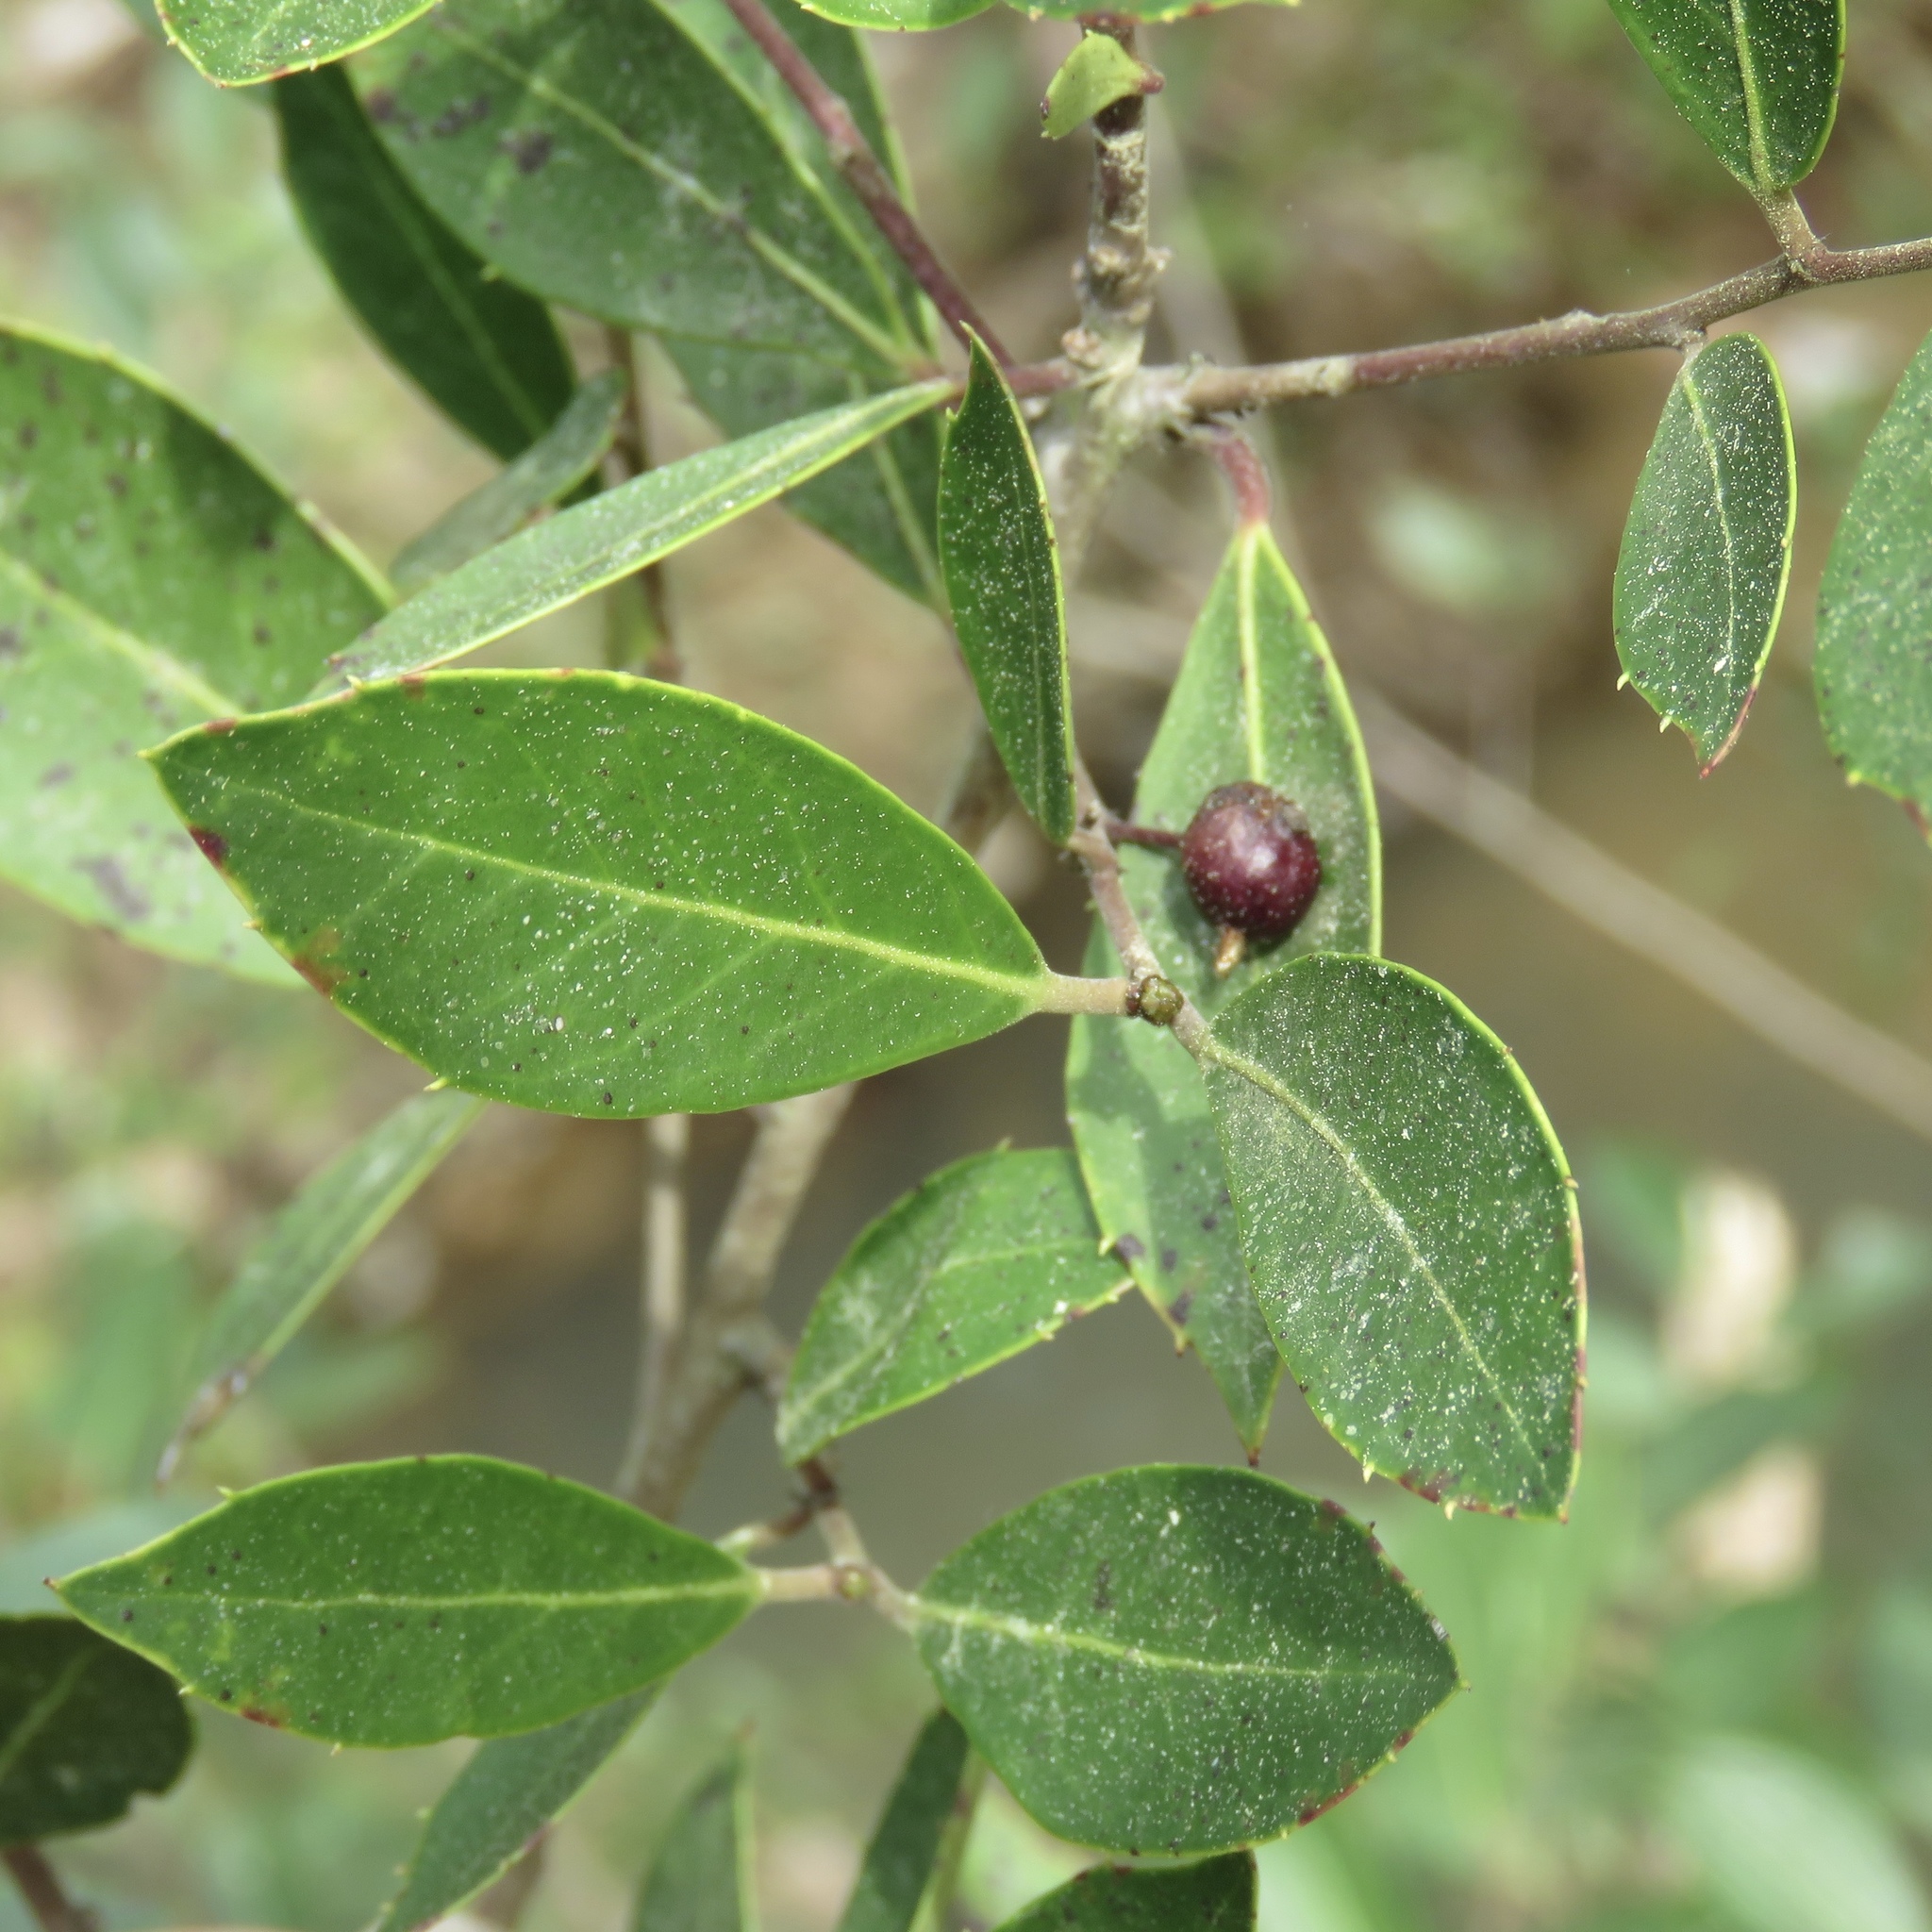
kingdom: Plantae
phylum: Tracheophyta
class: Magnoliopsida
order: Aquifoliales
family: Aquifoliaceae
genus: Ilex
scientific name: Ilex coriacea
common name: Sweet gallberry
